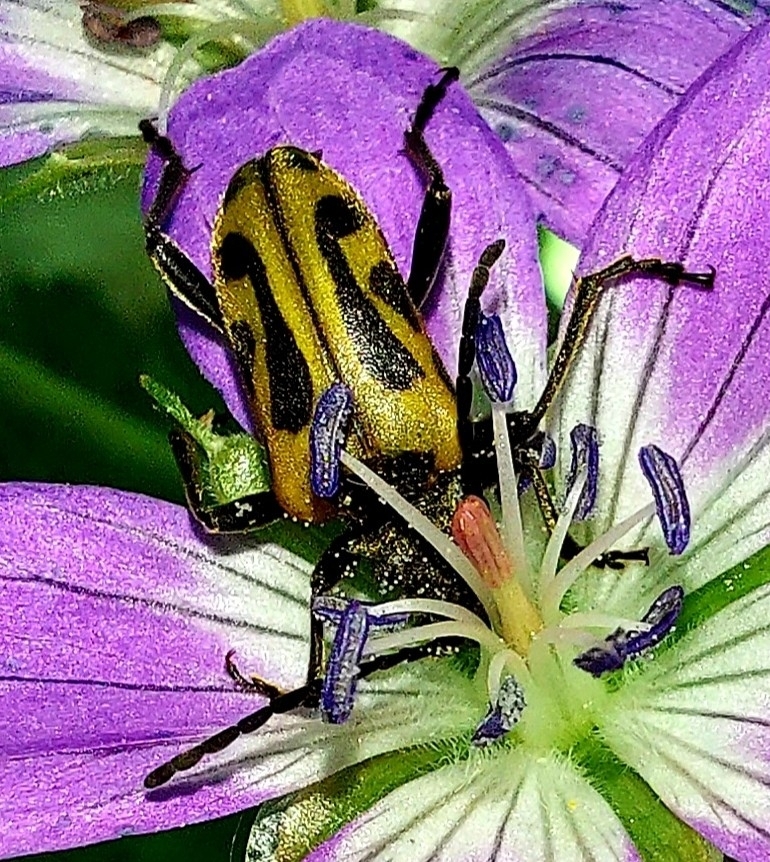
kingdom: Animalia
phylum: Arthropoda
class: Insecta
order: Coleoptera
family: Cerambycidae
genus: Brachyta
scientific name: Brachyta interrogationis
